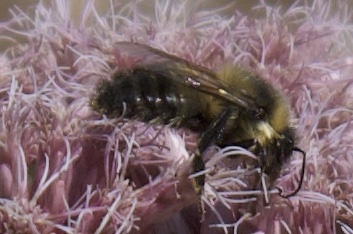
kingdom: Animalia
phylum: Arthropoda
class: Insecta
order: Hymenoptera
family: Apidae
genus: Bombus
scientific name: Bombus rufocinctus
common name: Red-belted bumble bee
